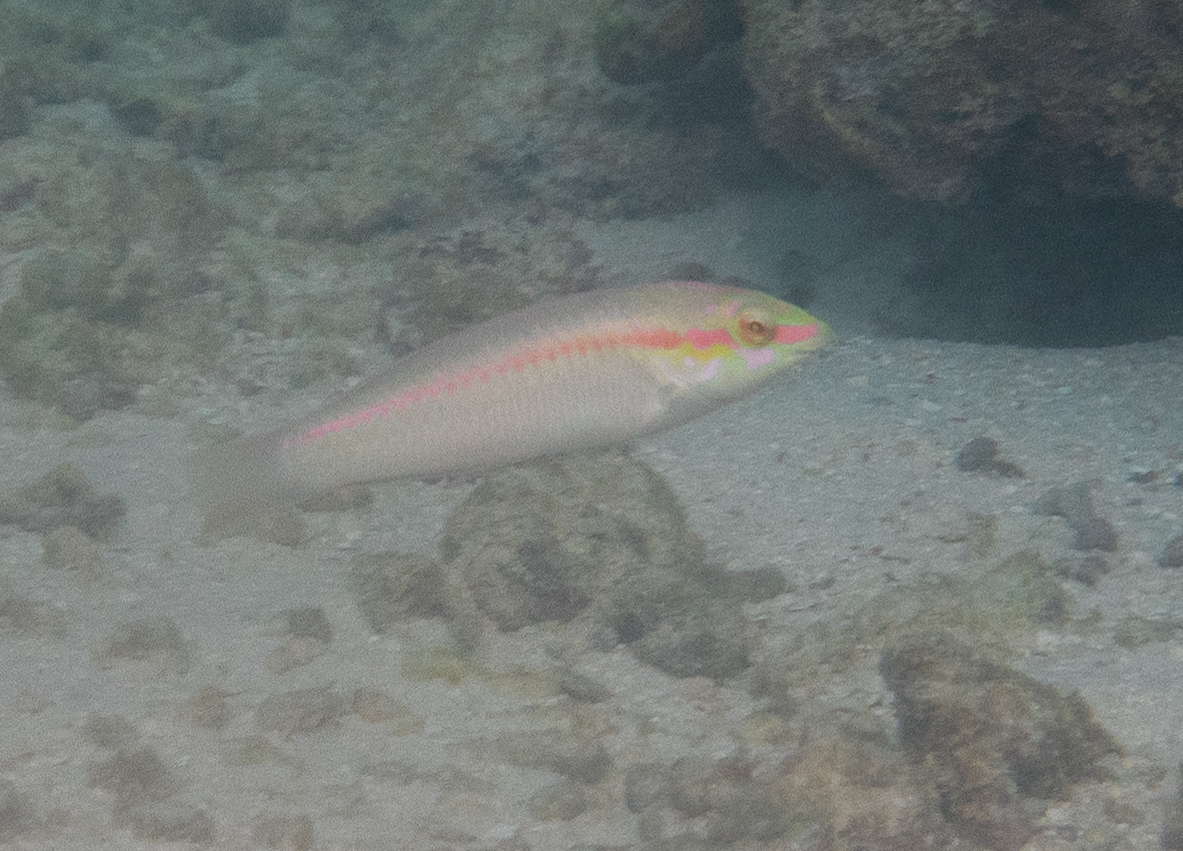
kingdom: Animalia
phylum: Chordata
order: Perciformes
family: Labridae
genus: Halichoeres
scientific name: Halichoeres scapularis
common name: Brownbanded wrasse
